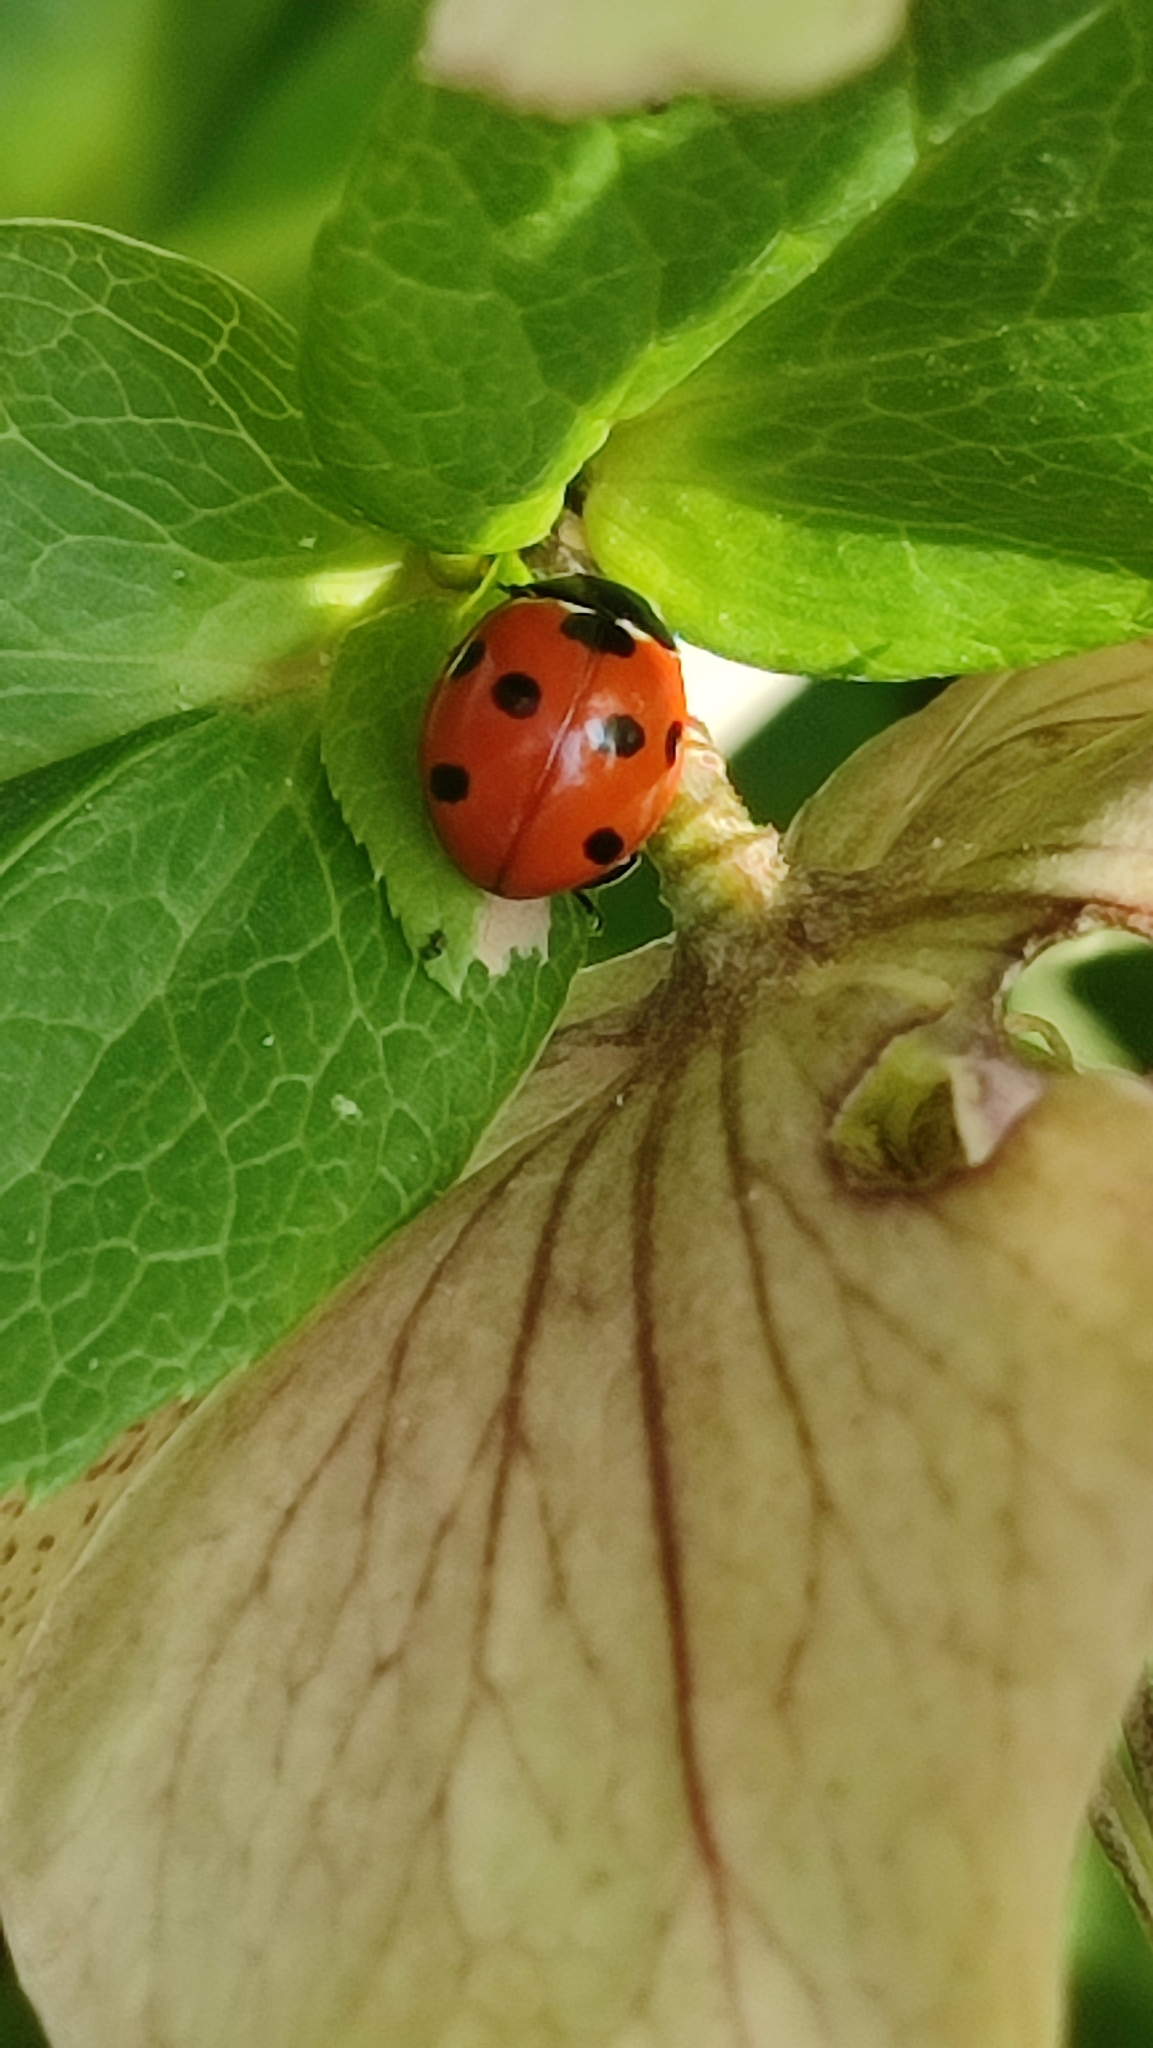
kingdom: Animalia
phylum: Arthropoda
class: Insecta
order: Coleoptera
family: Coccinellidae
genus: Coccinella
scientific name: Coccinella septempunctata
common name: Sevenspotted lady beetle
